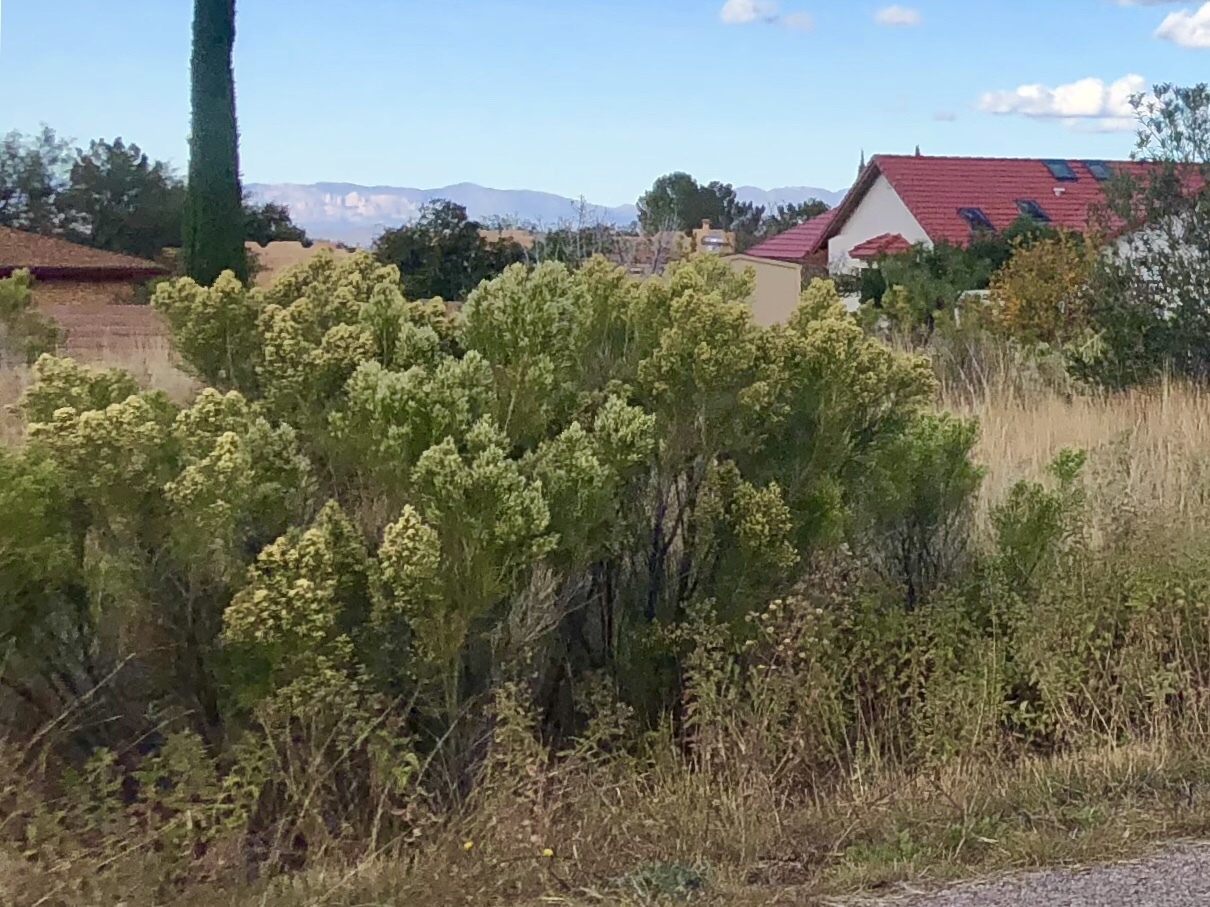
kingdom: Plantae
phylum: Tracheophyta
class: Magnoliopsida
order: Asterales
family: Asteraceae
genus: Baccharis
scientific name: Baccharis sarothroides
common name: Desert-broom
